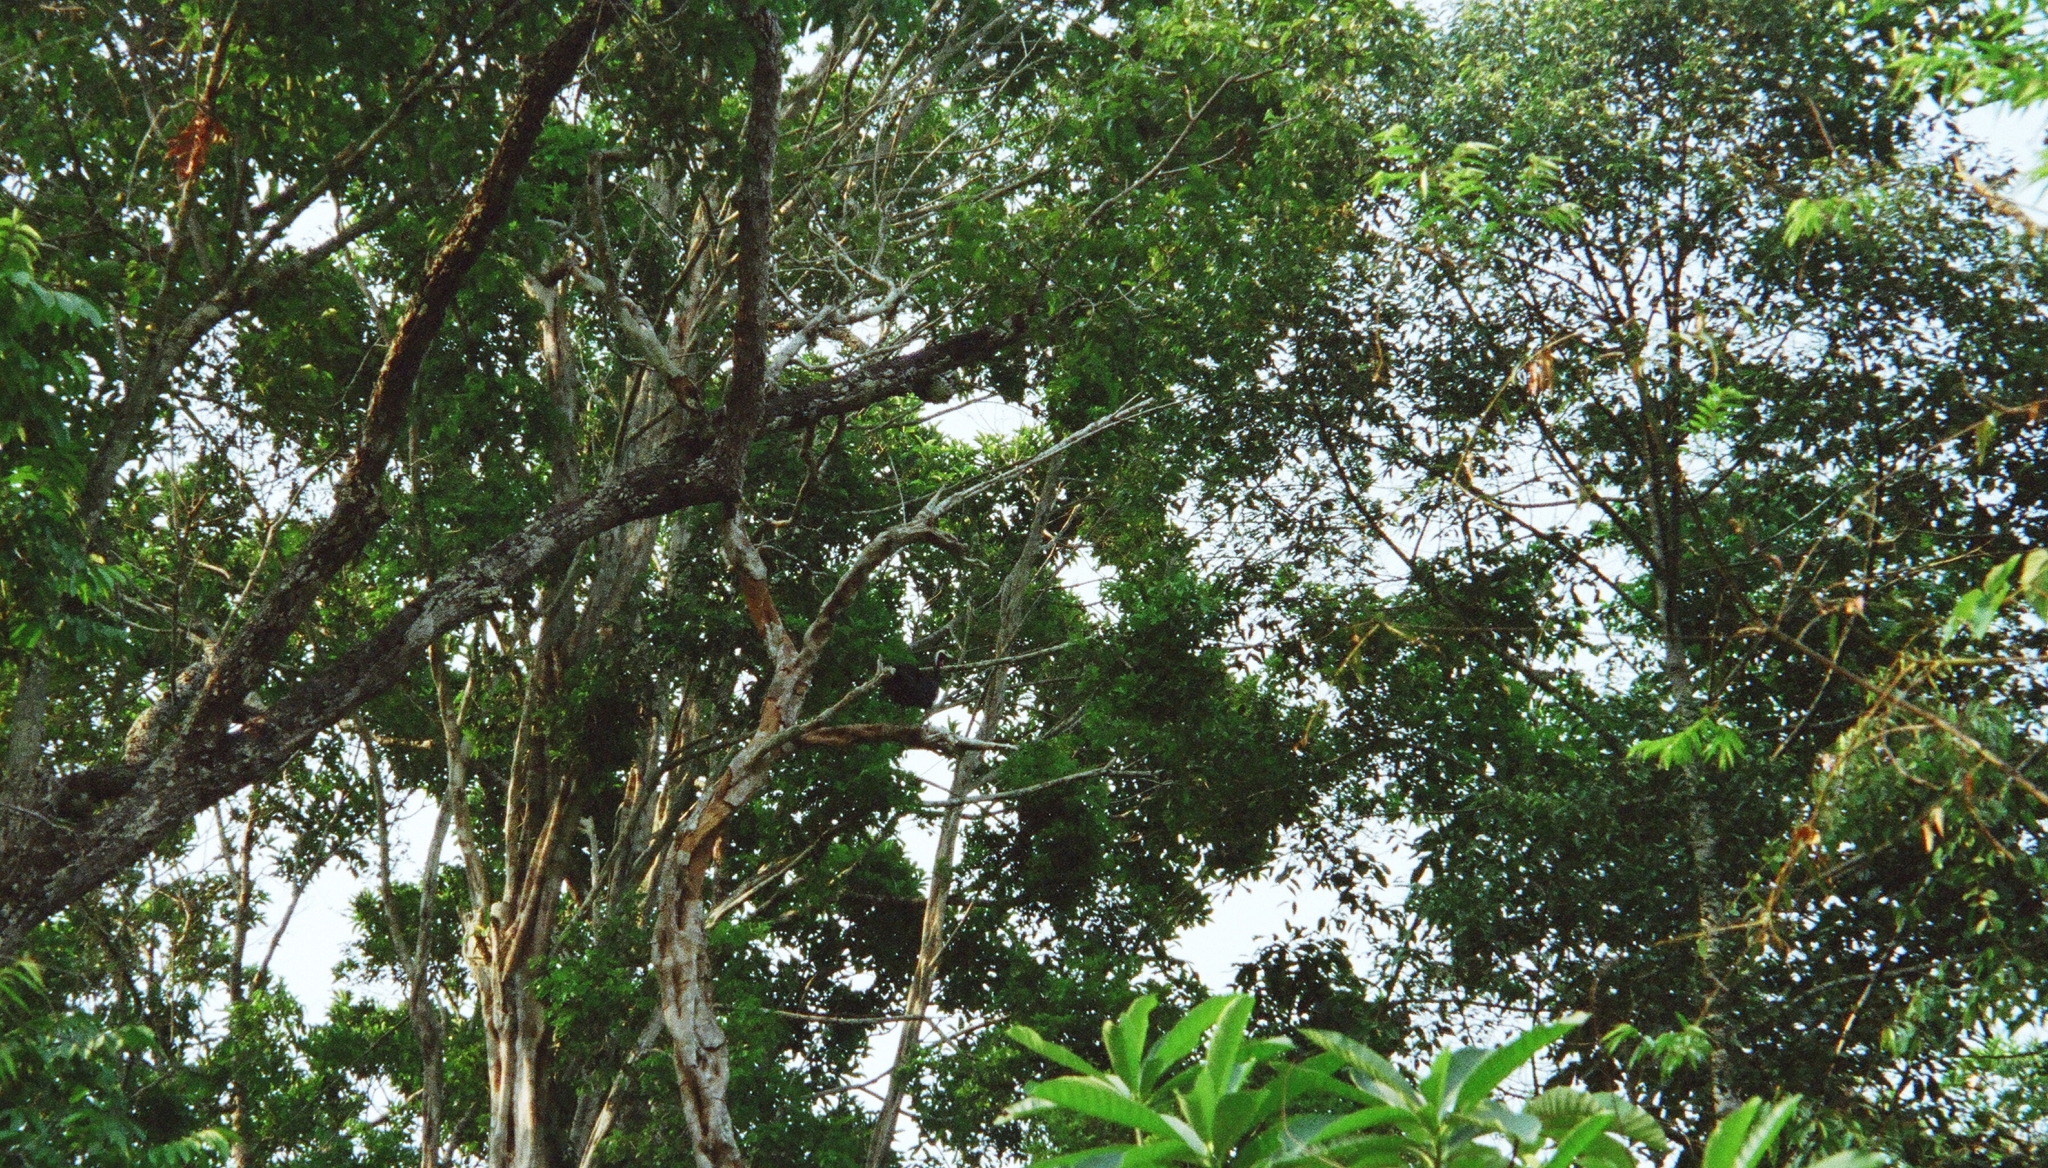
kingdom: Animalia
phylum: Chordata
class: Aves
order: Galliformes
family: Cracidae
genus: Pipile
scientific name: Pipile cujubi
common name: Red-throated piping-guan
